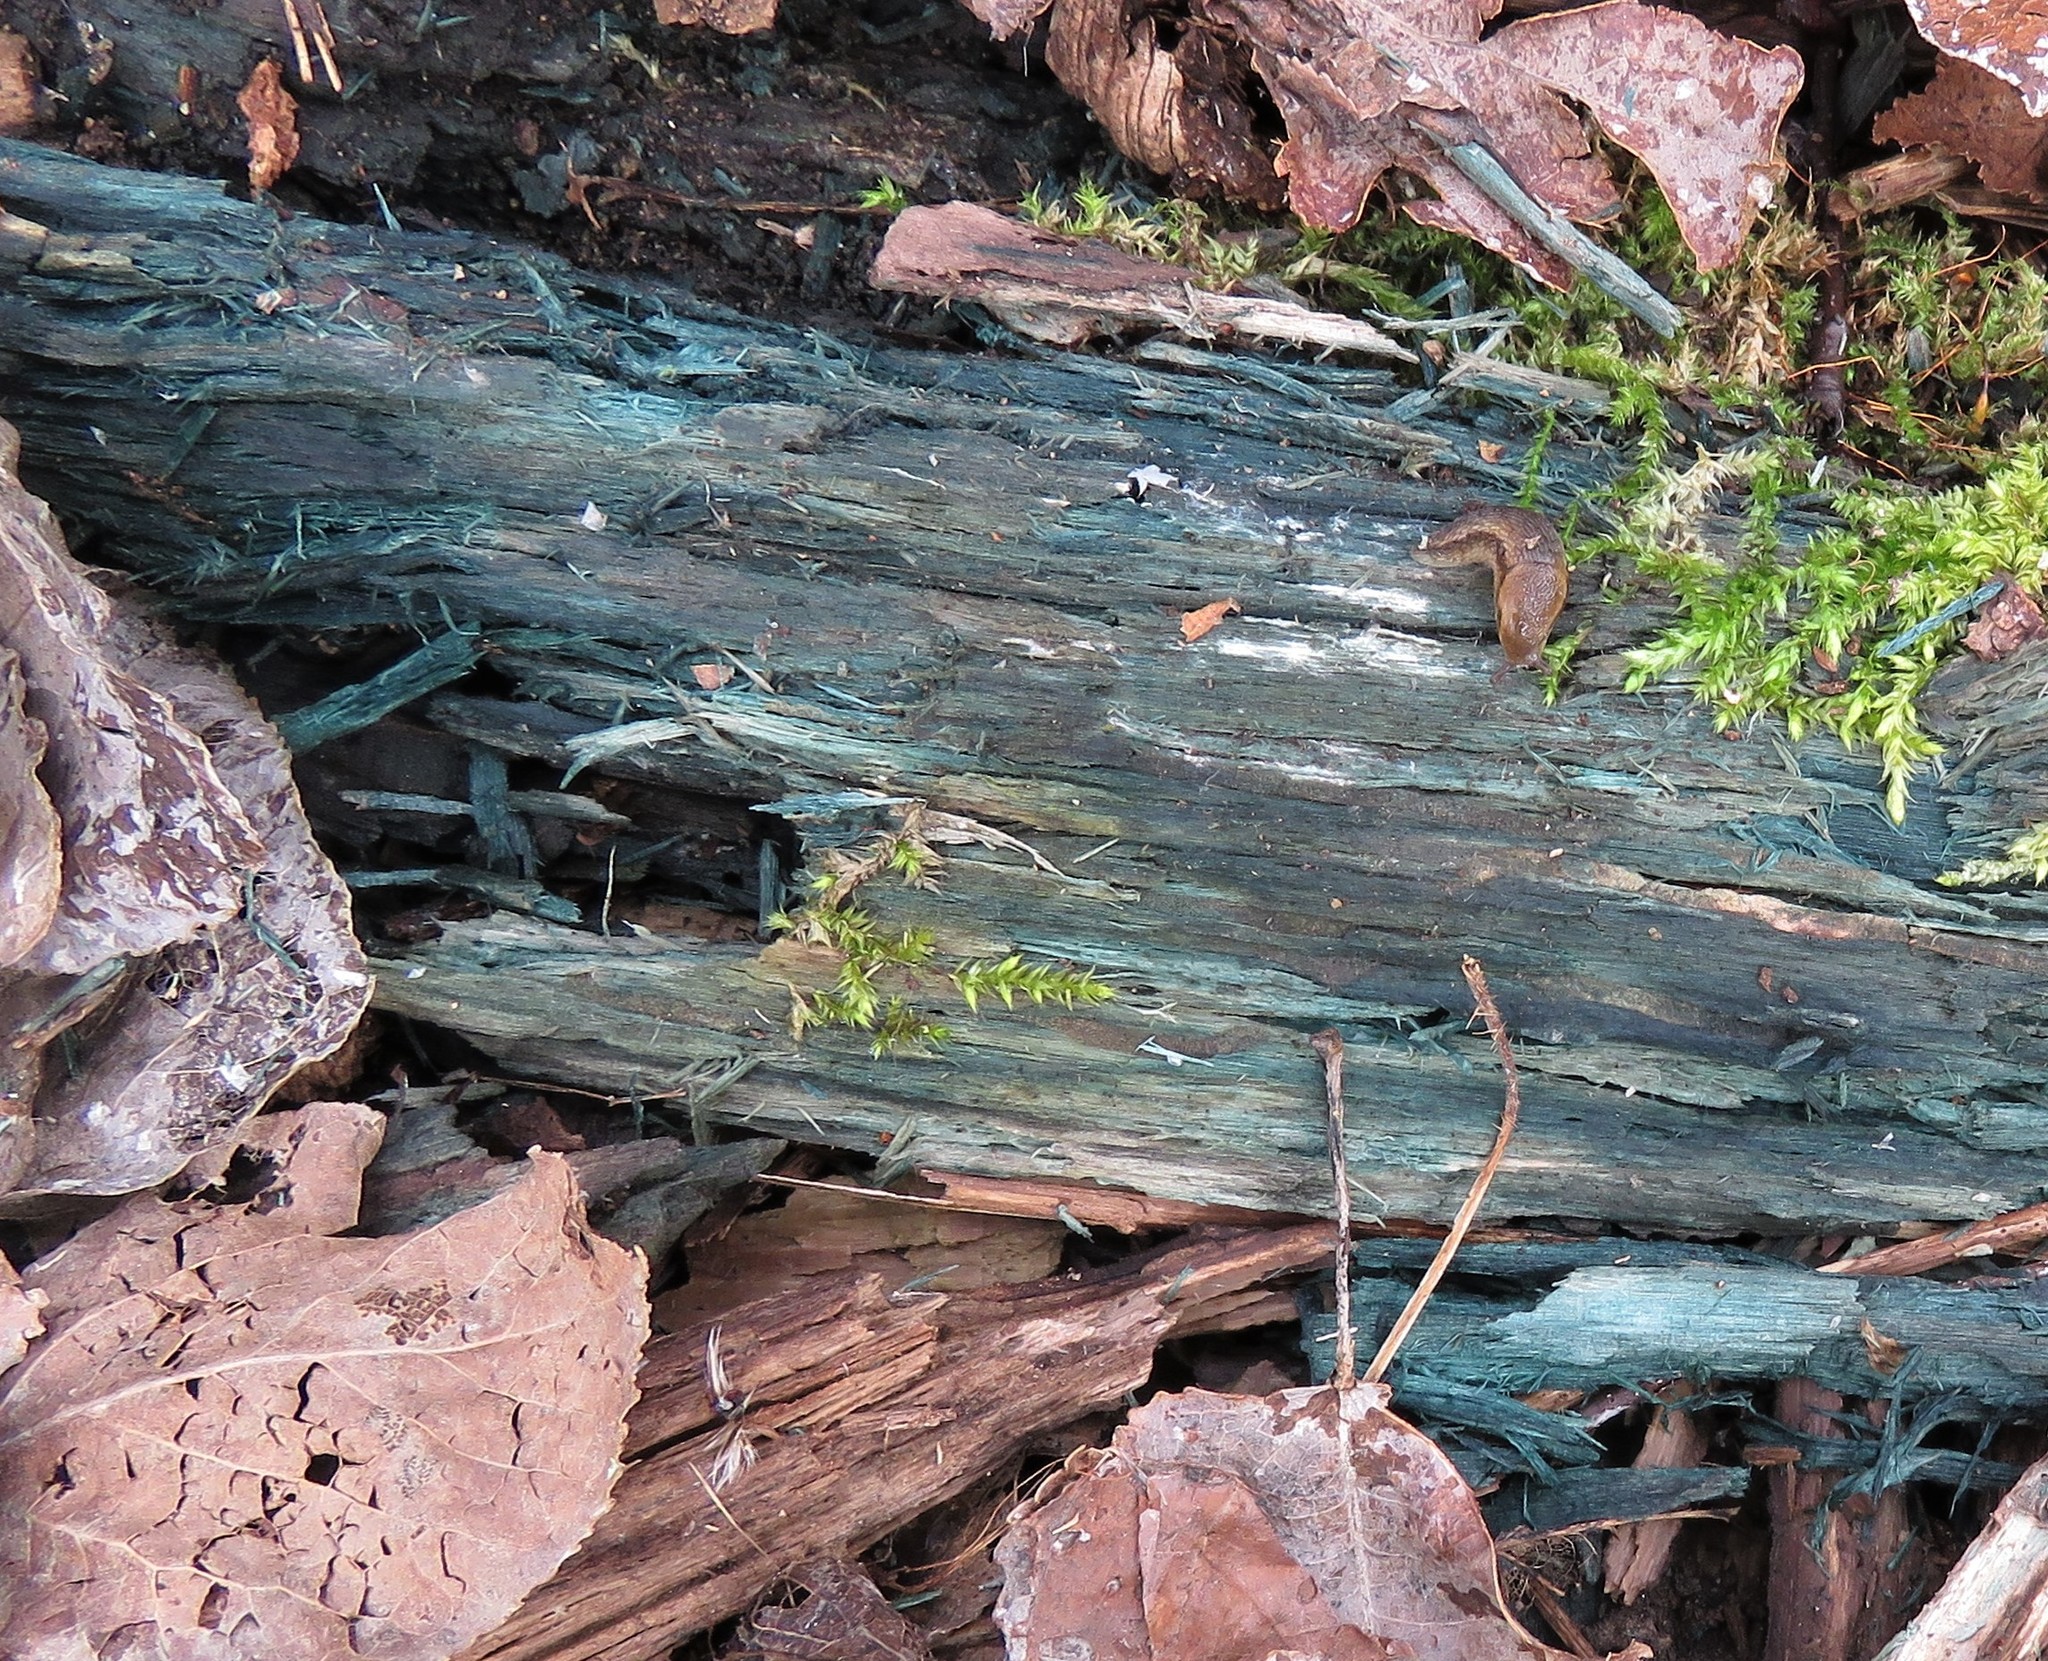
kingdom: Fungi
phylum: Ascomycota
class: Leotiomycetes
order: Helotiales
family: Chlorociboriaceae
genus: Chlorociboria
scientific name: Chlorociboria
